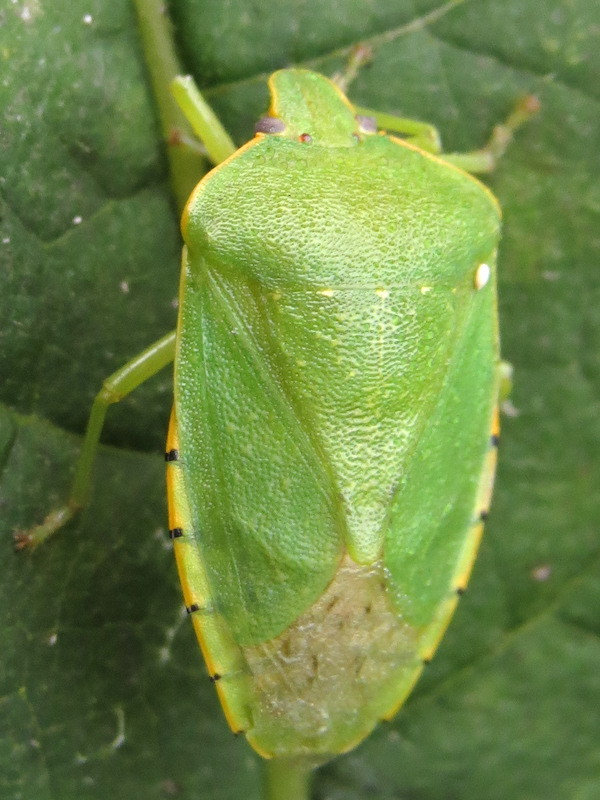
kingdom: Animalia
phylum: Arthropoda
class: Insecta
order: Hemiptera
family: Pentatomidae
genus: Chinavia
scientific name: Chinavia hilaris
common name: Green stink bug
